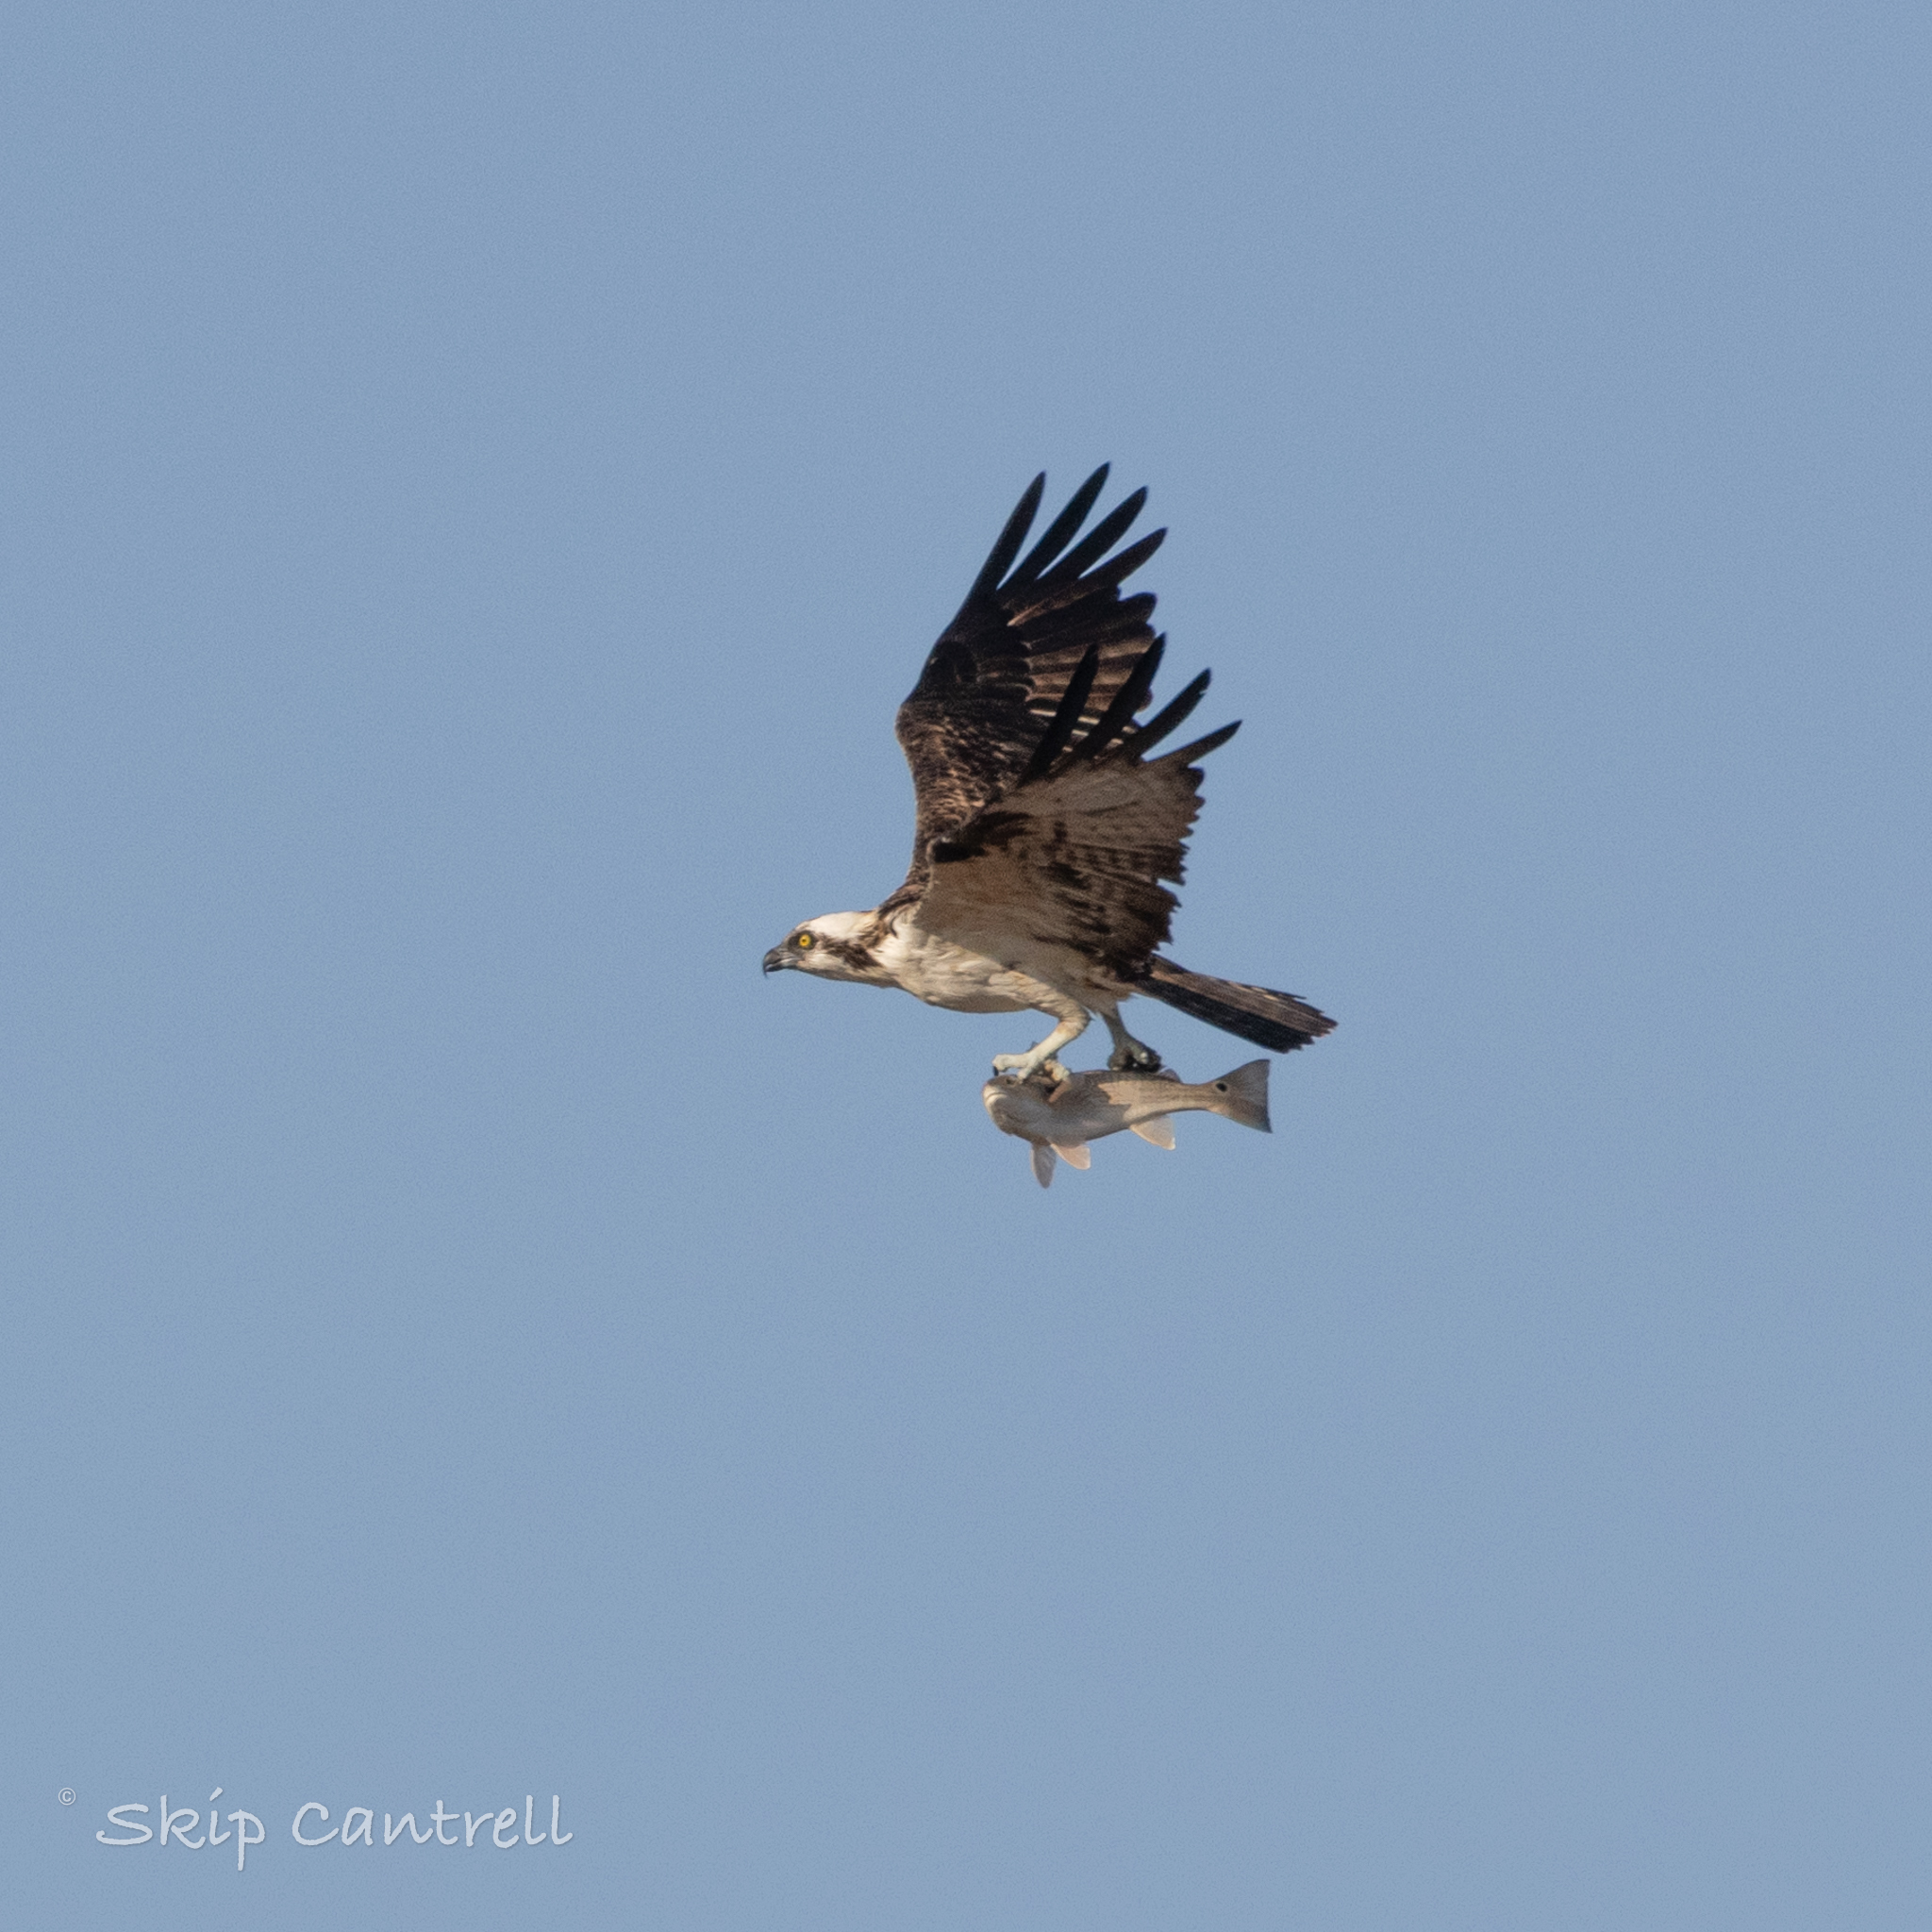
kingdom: Animalia
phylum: Chordata
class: Aves
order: Accipitriformes
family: Pandionidae
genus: Pandion
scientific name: Pandion haliaetus
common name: Osprey
